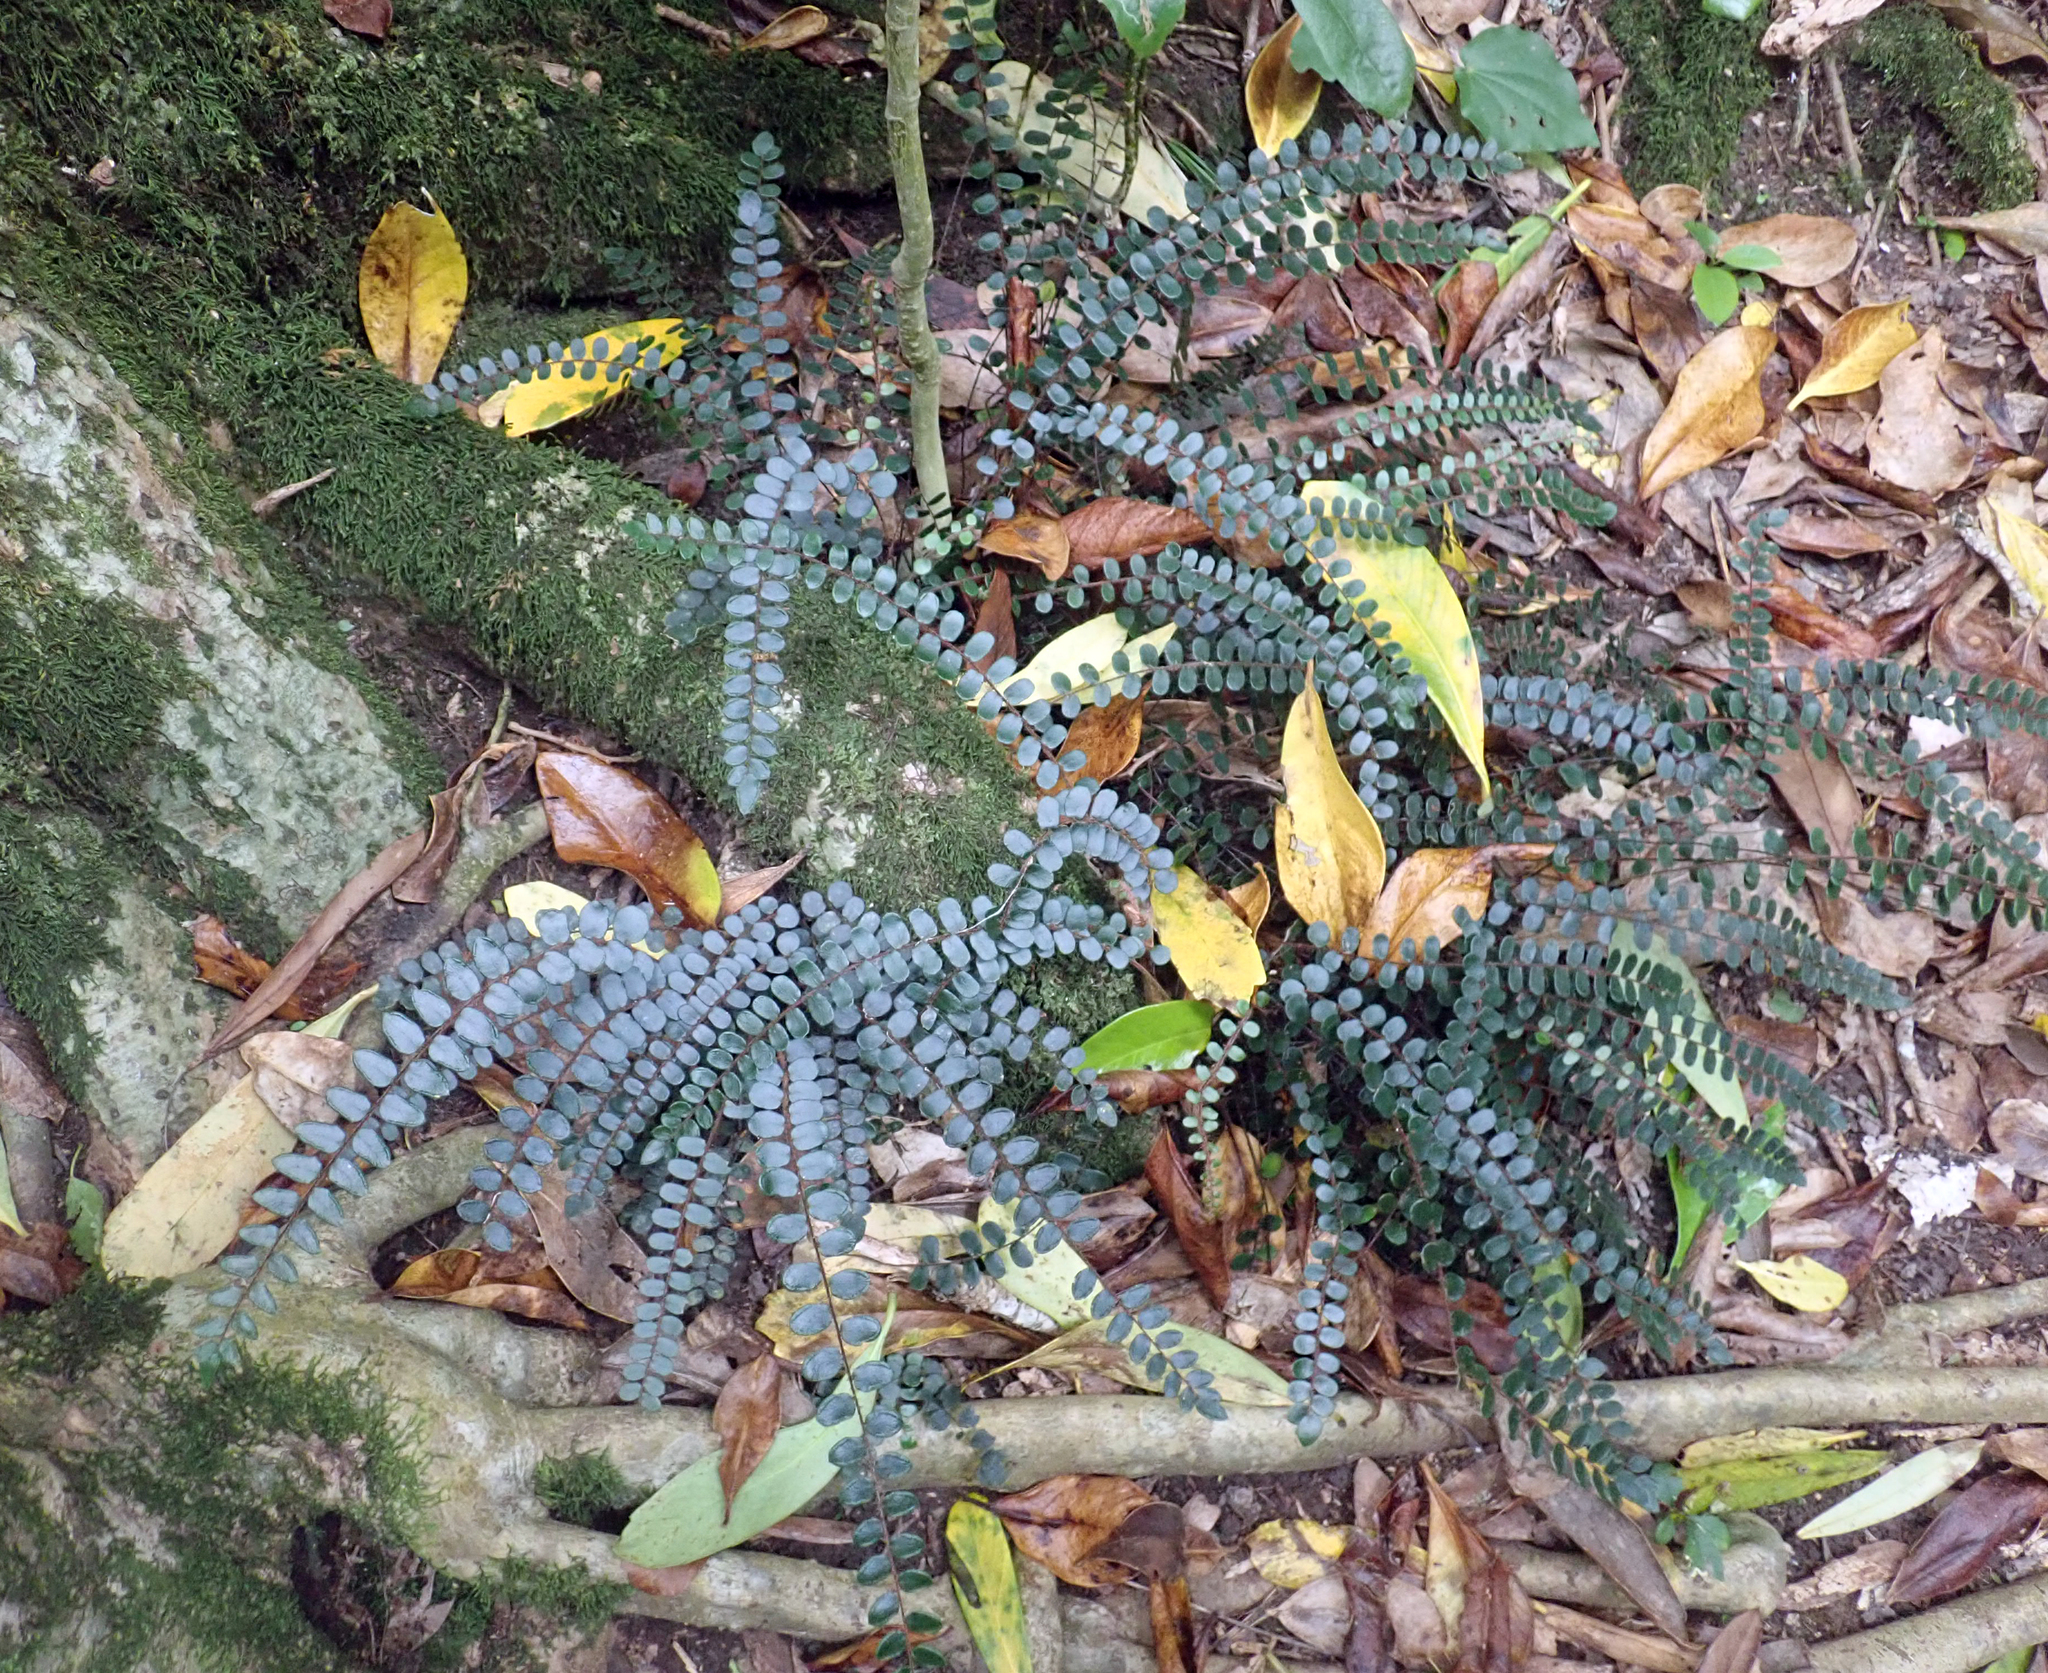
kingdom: Plantae
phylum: Tracheophyta
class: Polypodiopsida
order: Polypodiales
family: Pteridaceae
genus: Pellaea
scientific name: Pellaea rotundifolia
